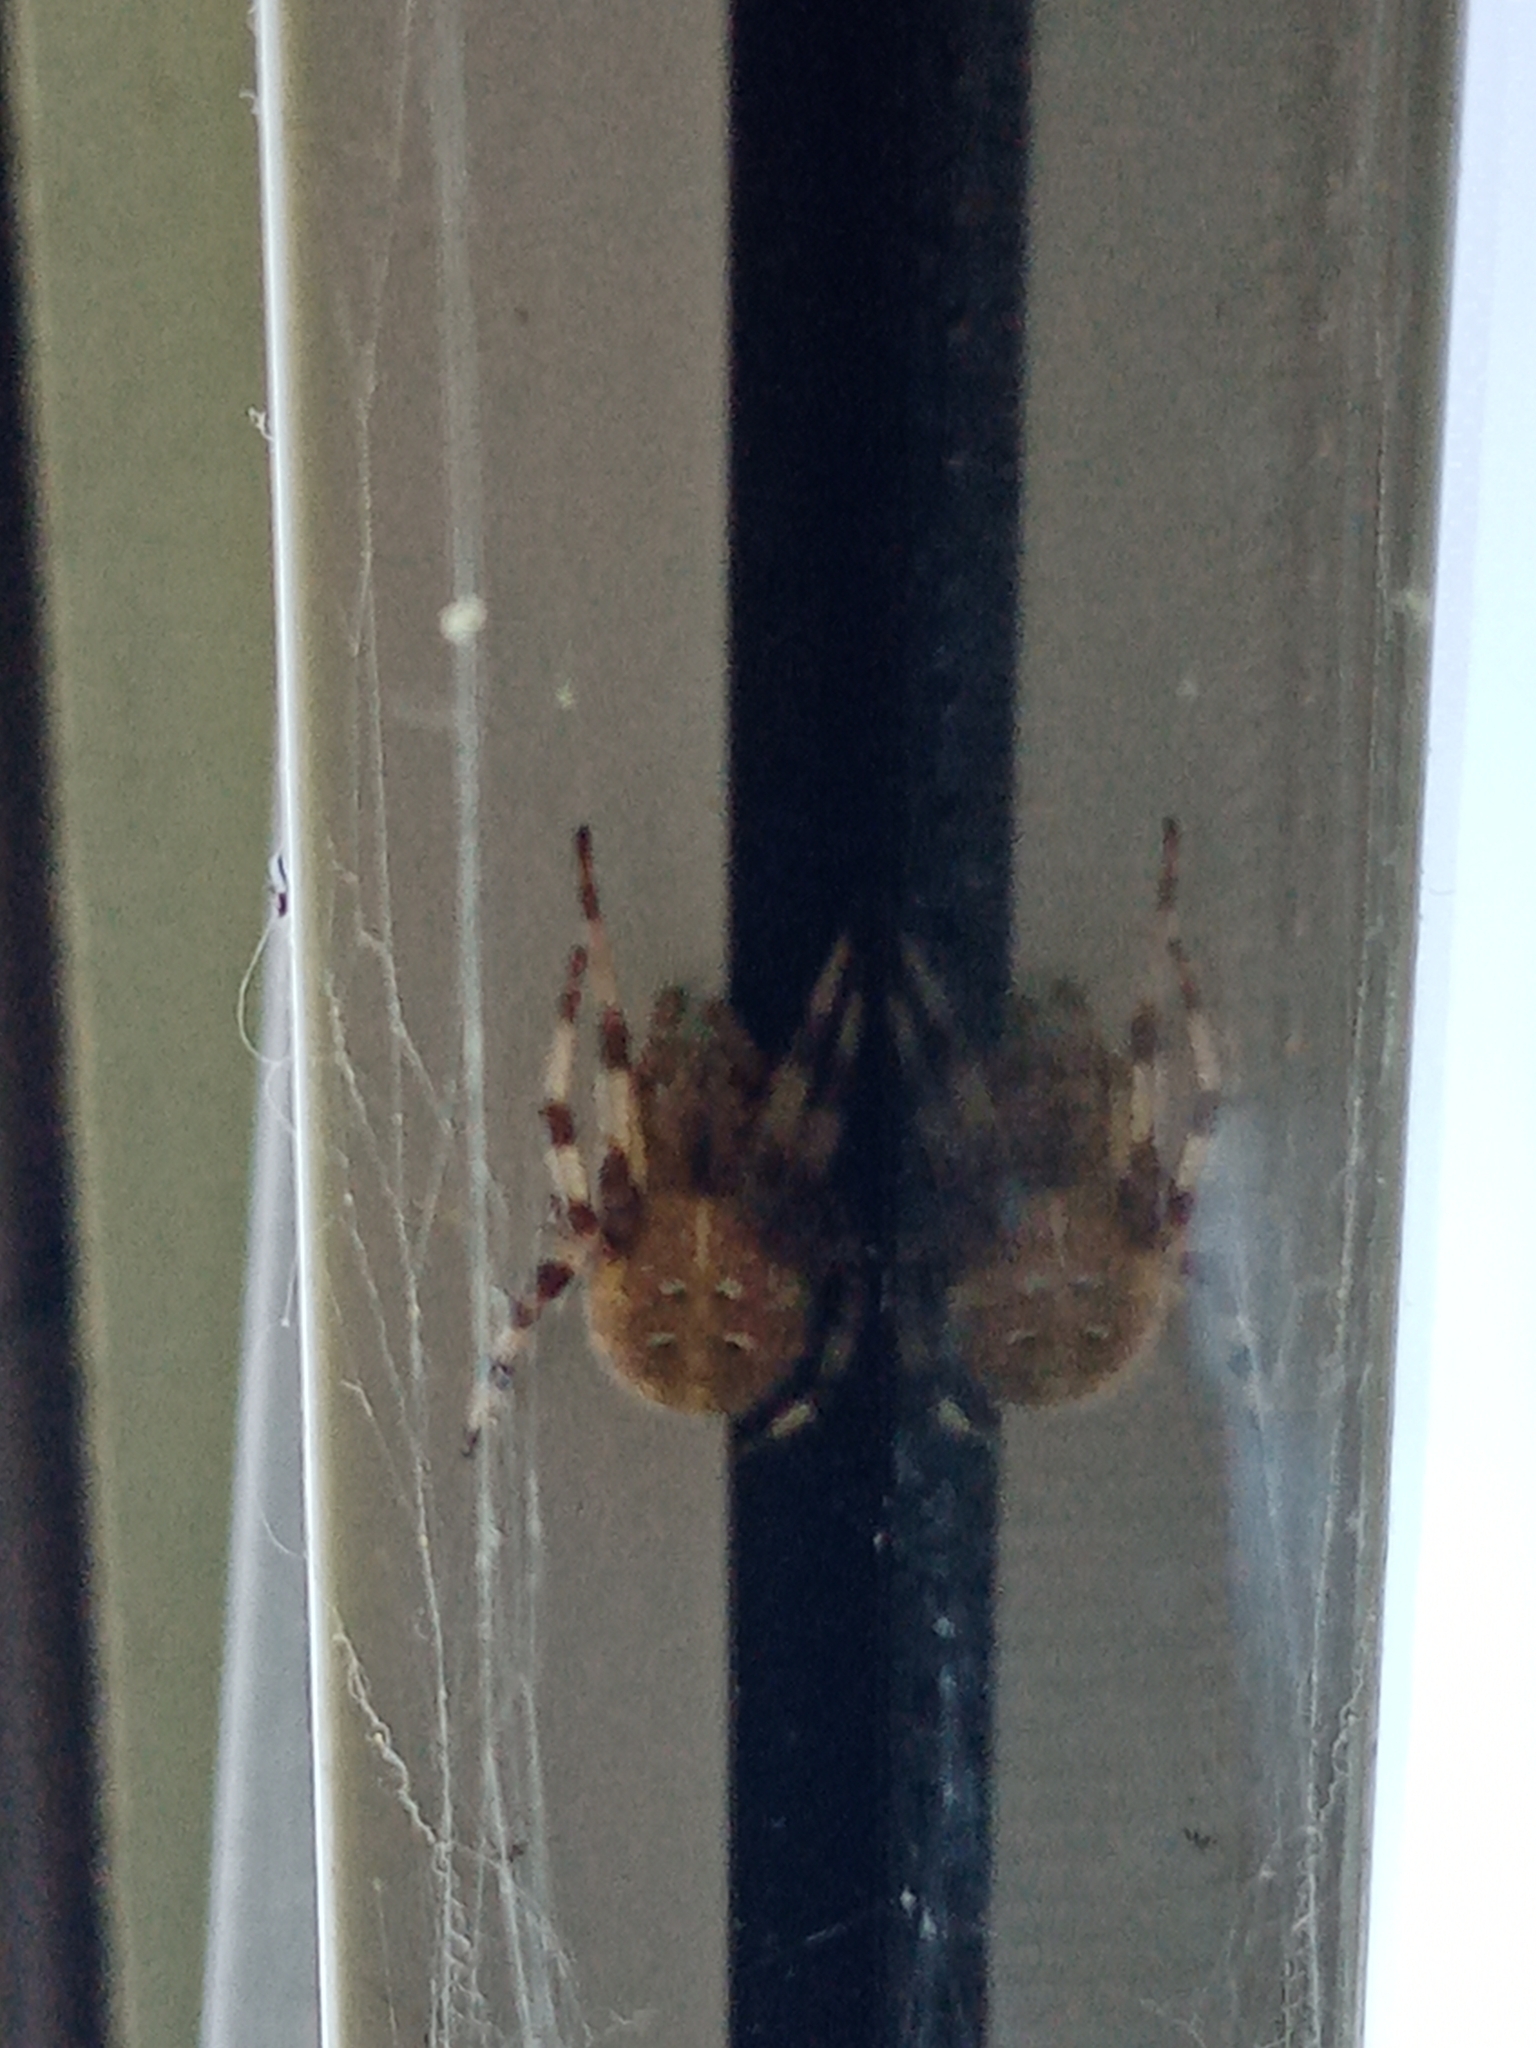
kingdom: Animalia
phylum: Arthropoda
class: Arachnida
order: Araneae
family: Araneidae
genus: Araneus
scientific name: Araneus quadratus
